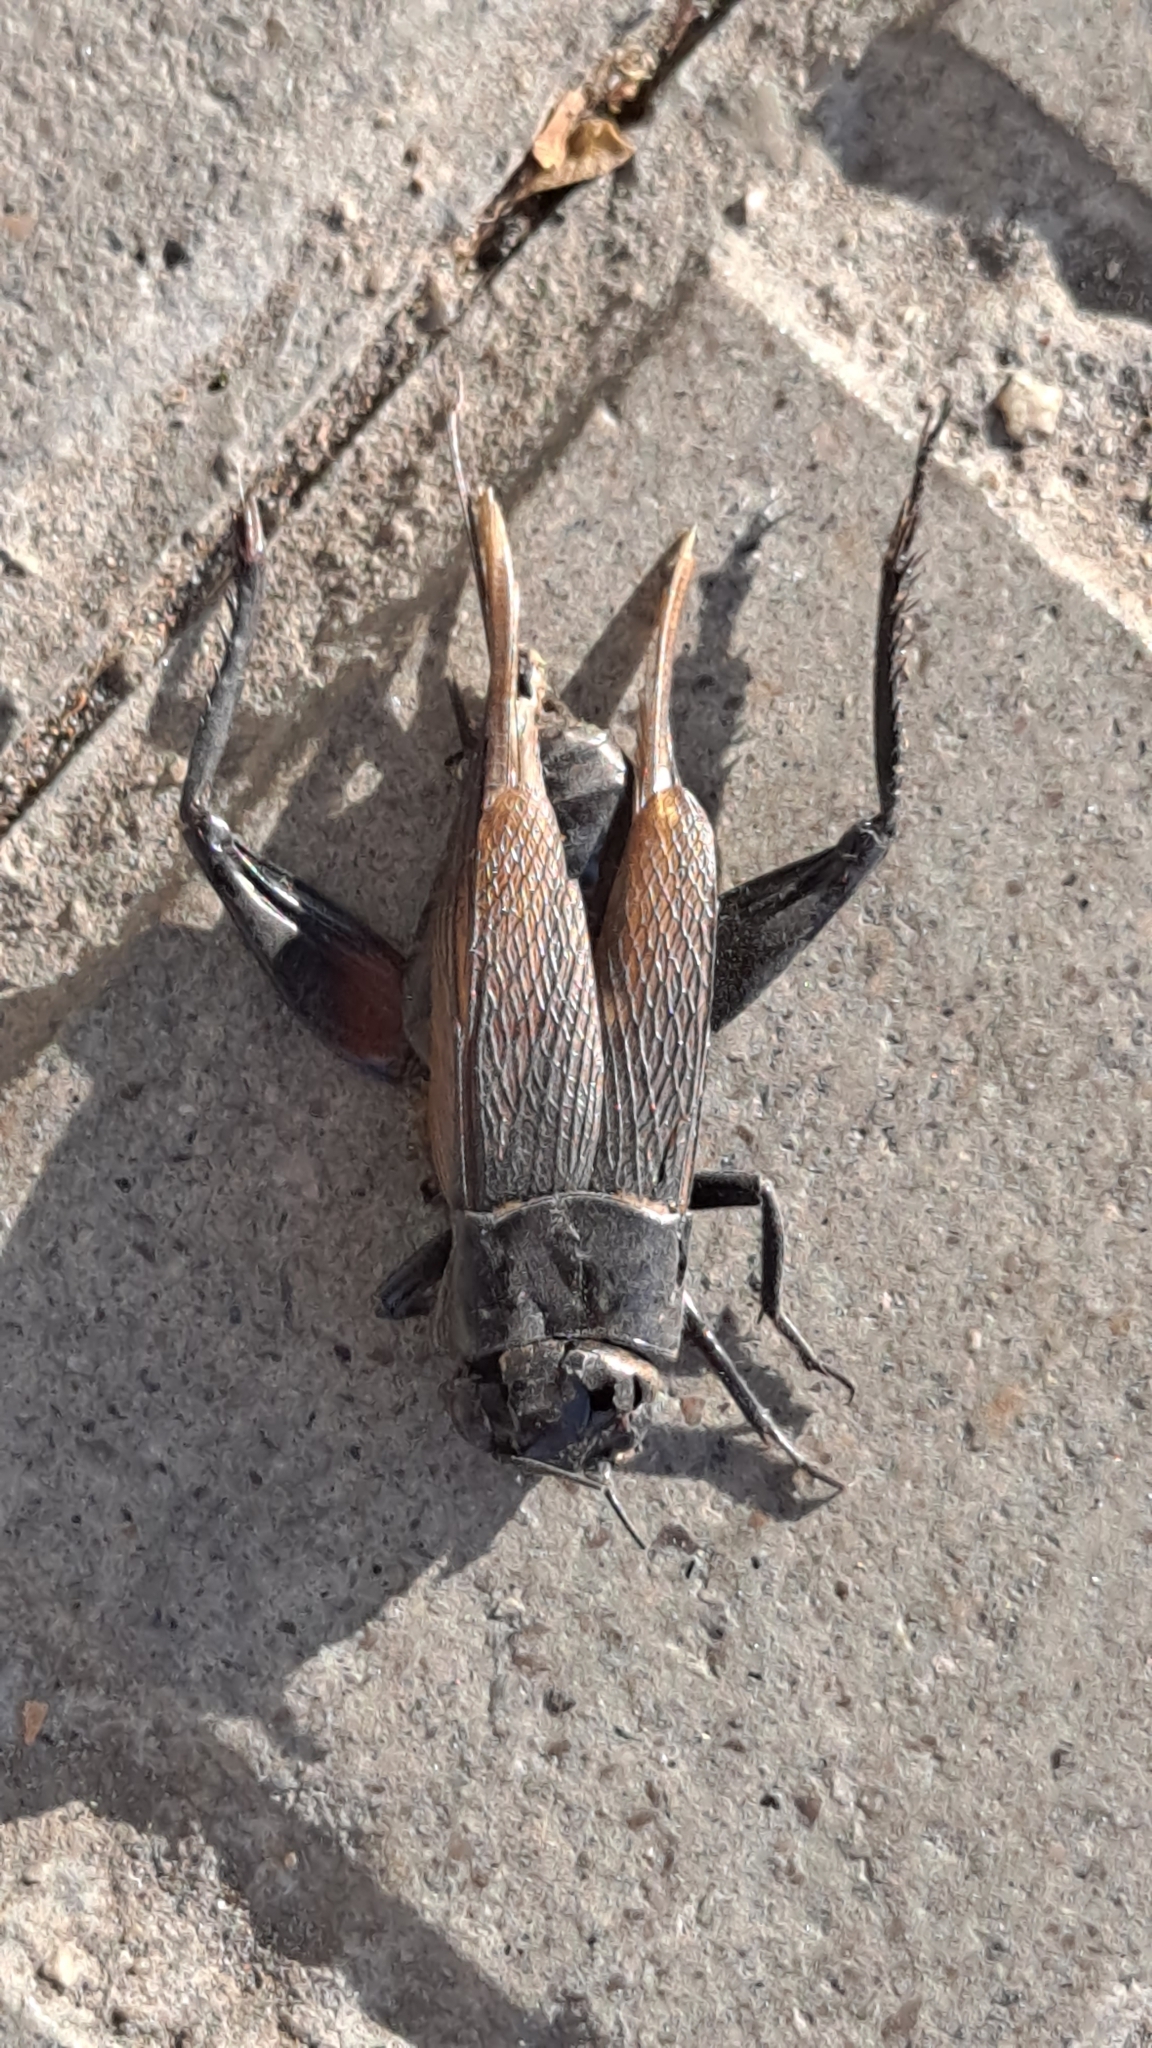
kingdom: Animalia
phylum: Arthropoda
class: Insecta
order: Orthoptera
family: Gryllidae
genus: Gryllus
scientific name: Gryllus bimaculatus
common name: Two-spotted cricket
